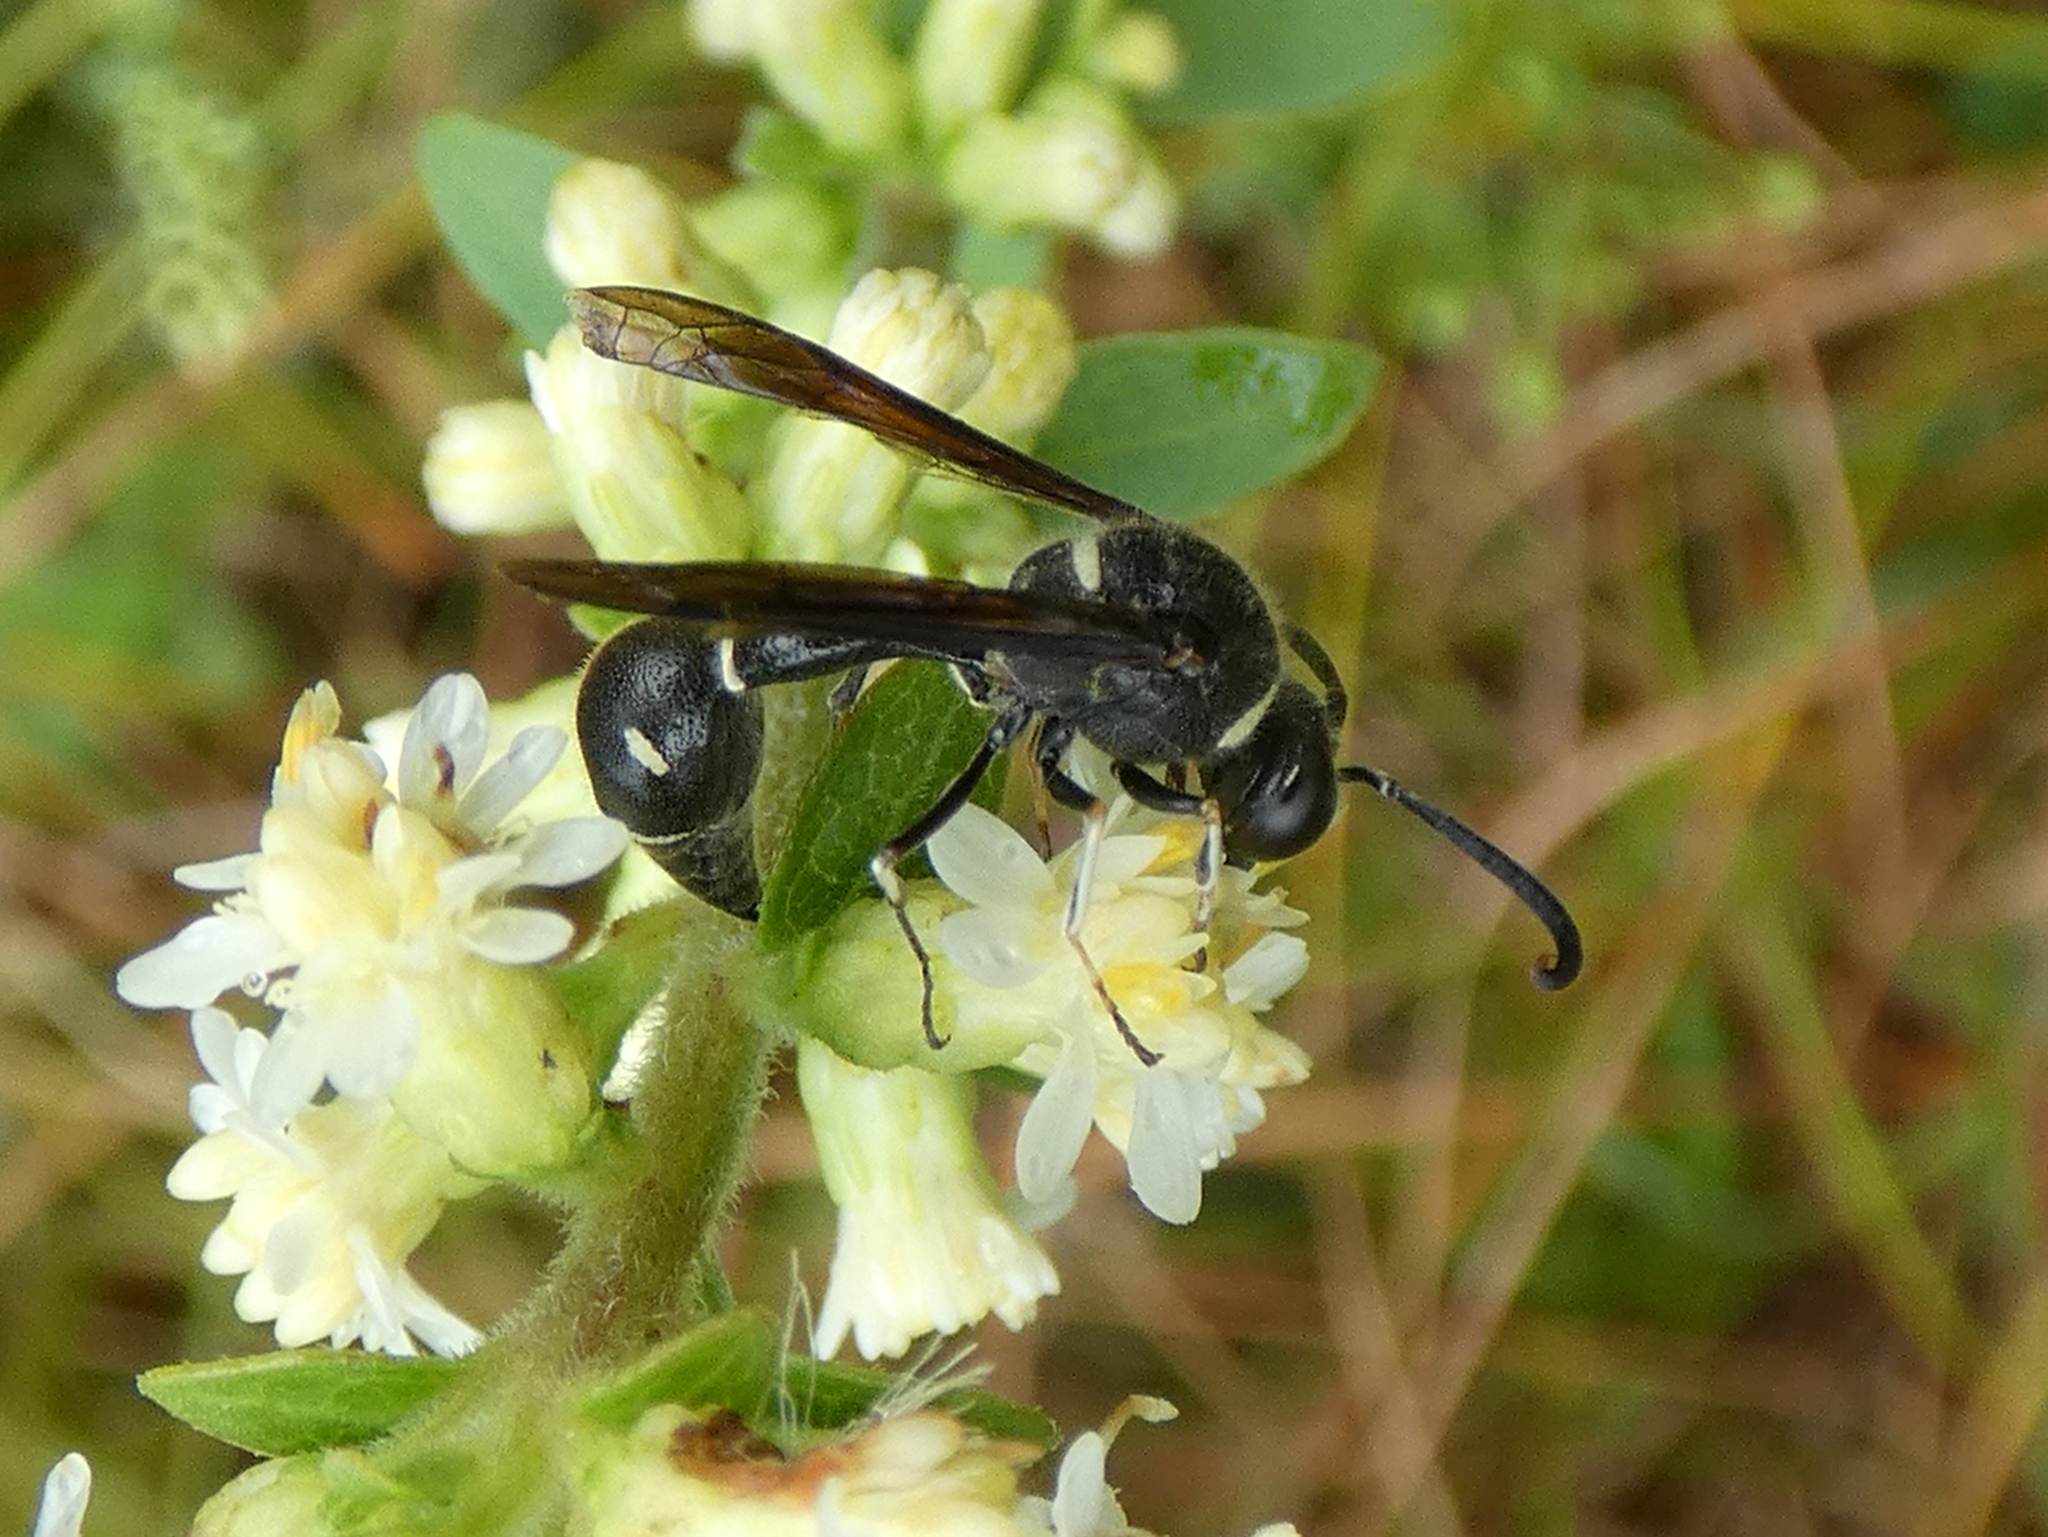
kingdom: Animalia
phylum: Arthropoda
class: Insecta
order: Hymenoptera
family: Vespidae
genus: Eumenes
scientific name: Eumenes fraternus
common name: Fraternal potter wasp
